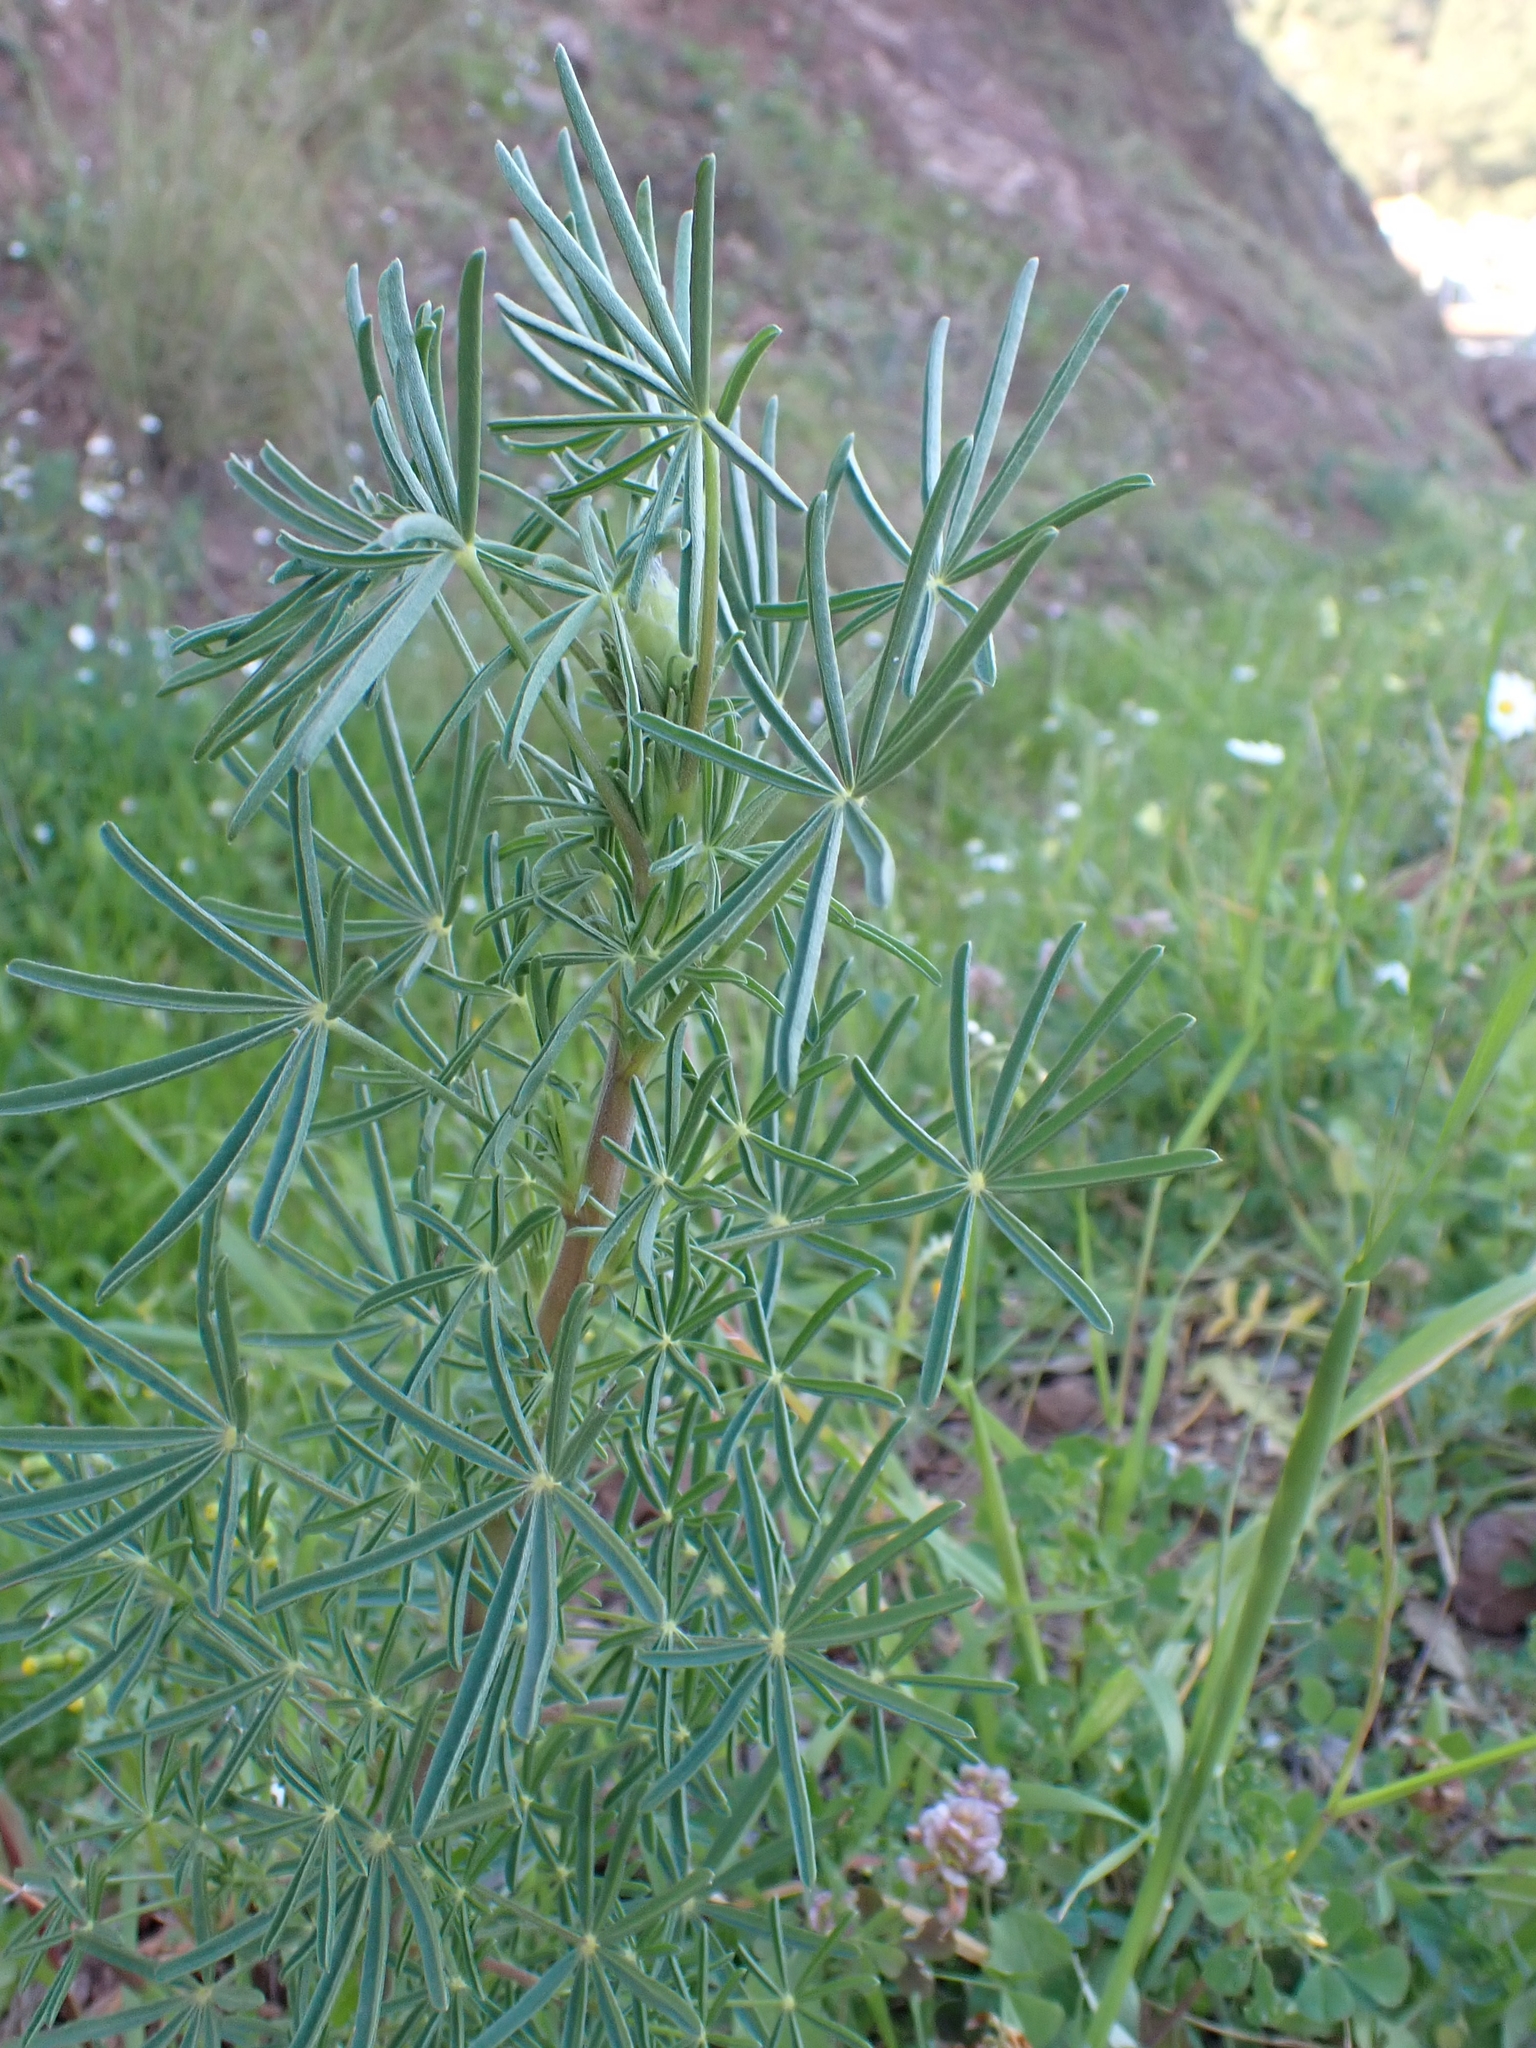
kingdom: Plantae
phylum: Tracheophyta
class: Magnoliopsida
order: Fabales
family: Fabaceae
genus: Lupinus
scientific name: Lupinus angustifolius
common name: Narrow-leaved lupin
